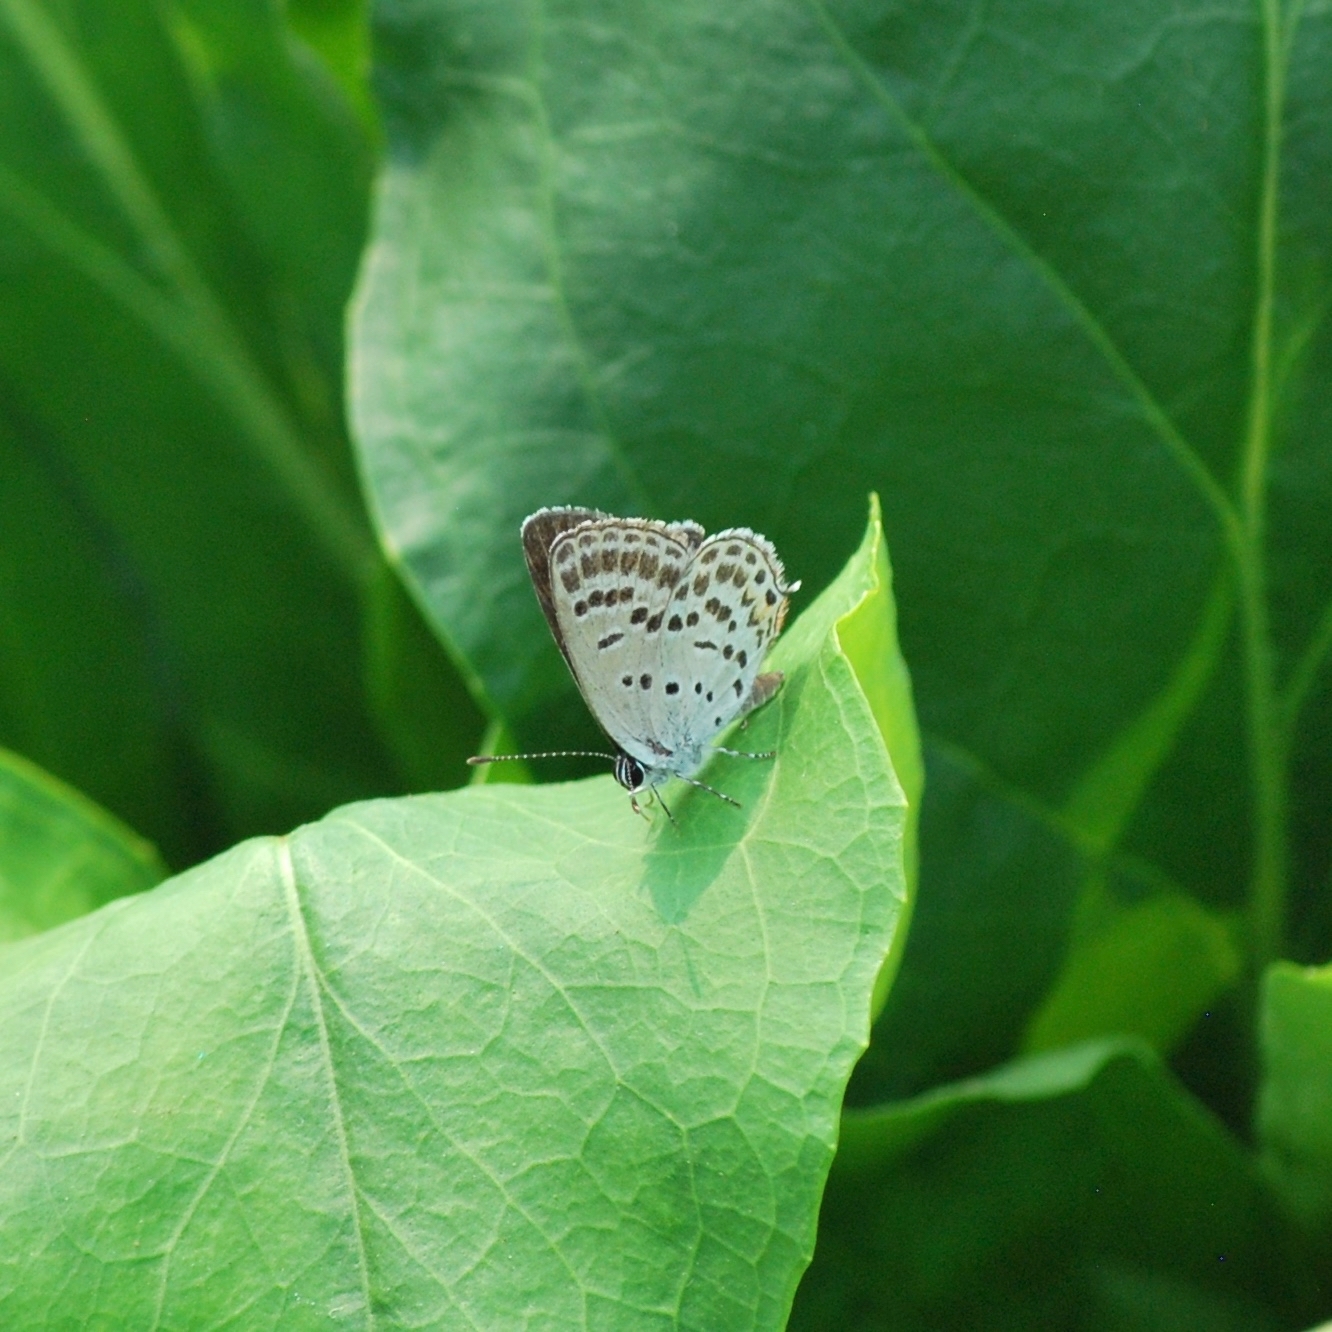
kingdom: Animalia
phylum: Arthropoda
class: Insecta
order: Lepidoptera
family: Lycaenidae
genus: Tongeia
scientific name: Tongeia filicaudis
